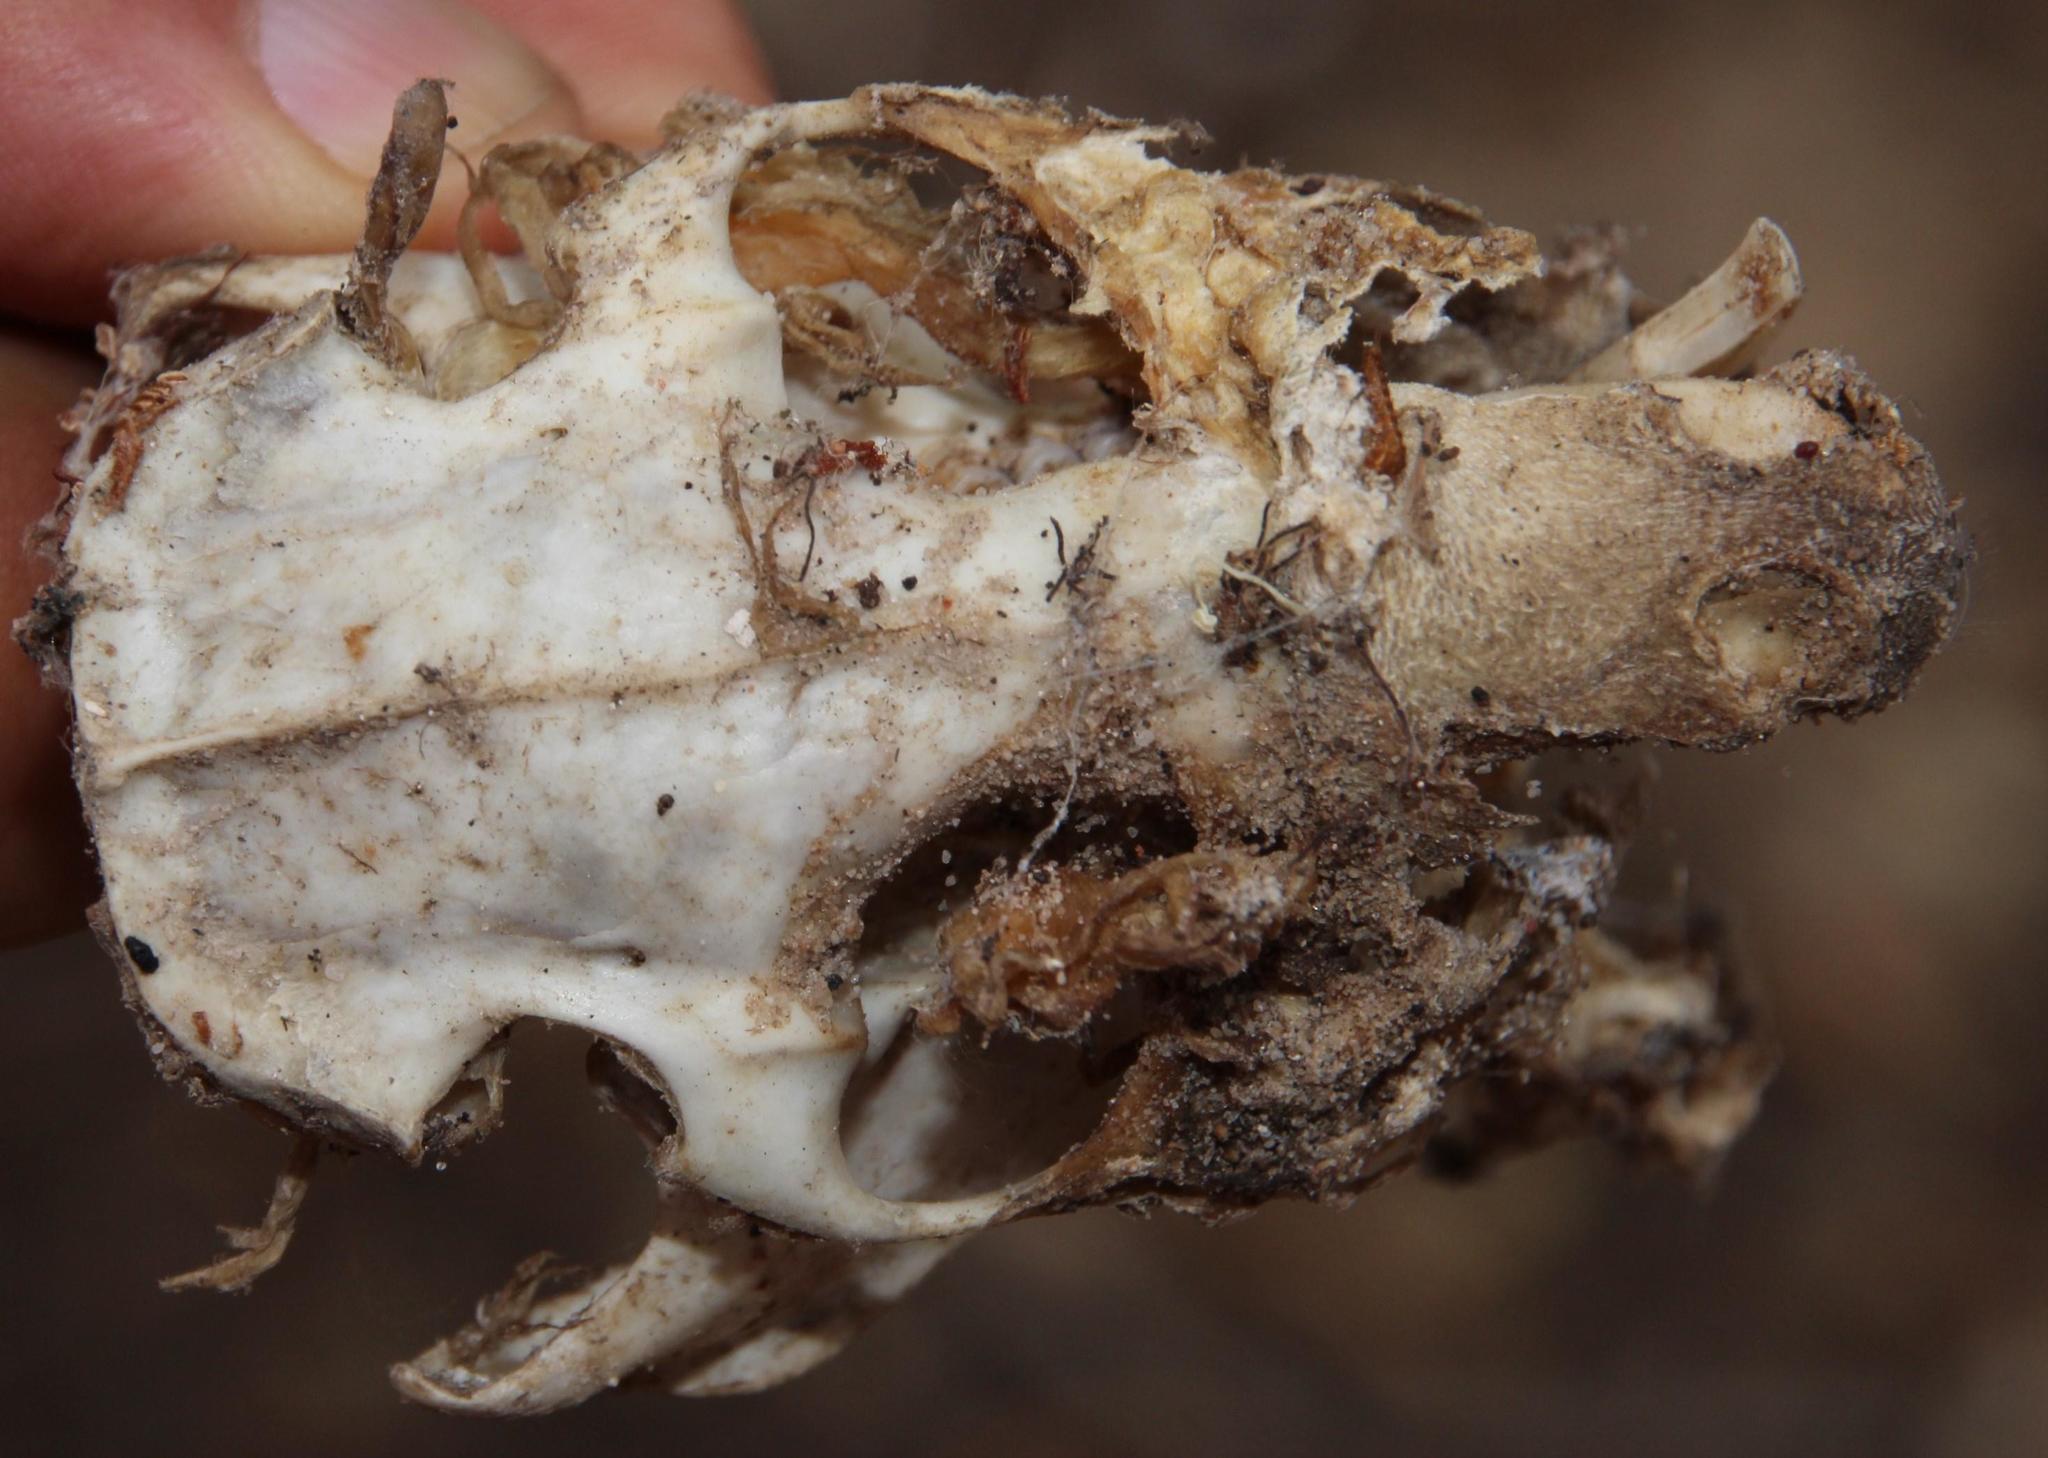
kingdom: Animalia
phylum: Chordata
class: Mammalia
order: Rodentia
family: Bathyergidae
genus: Bathyergus
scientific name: Bathyergus suillus
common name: Cape dune mole rat
